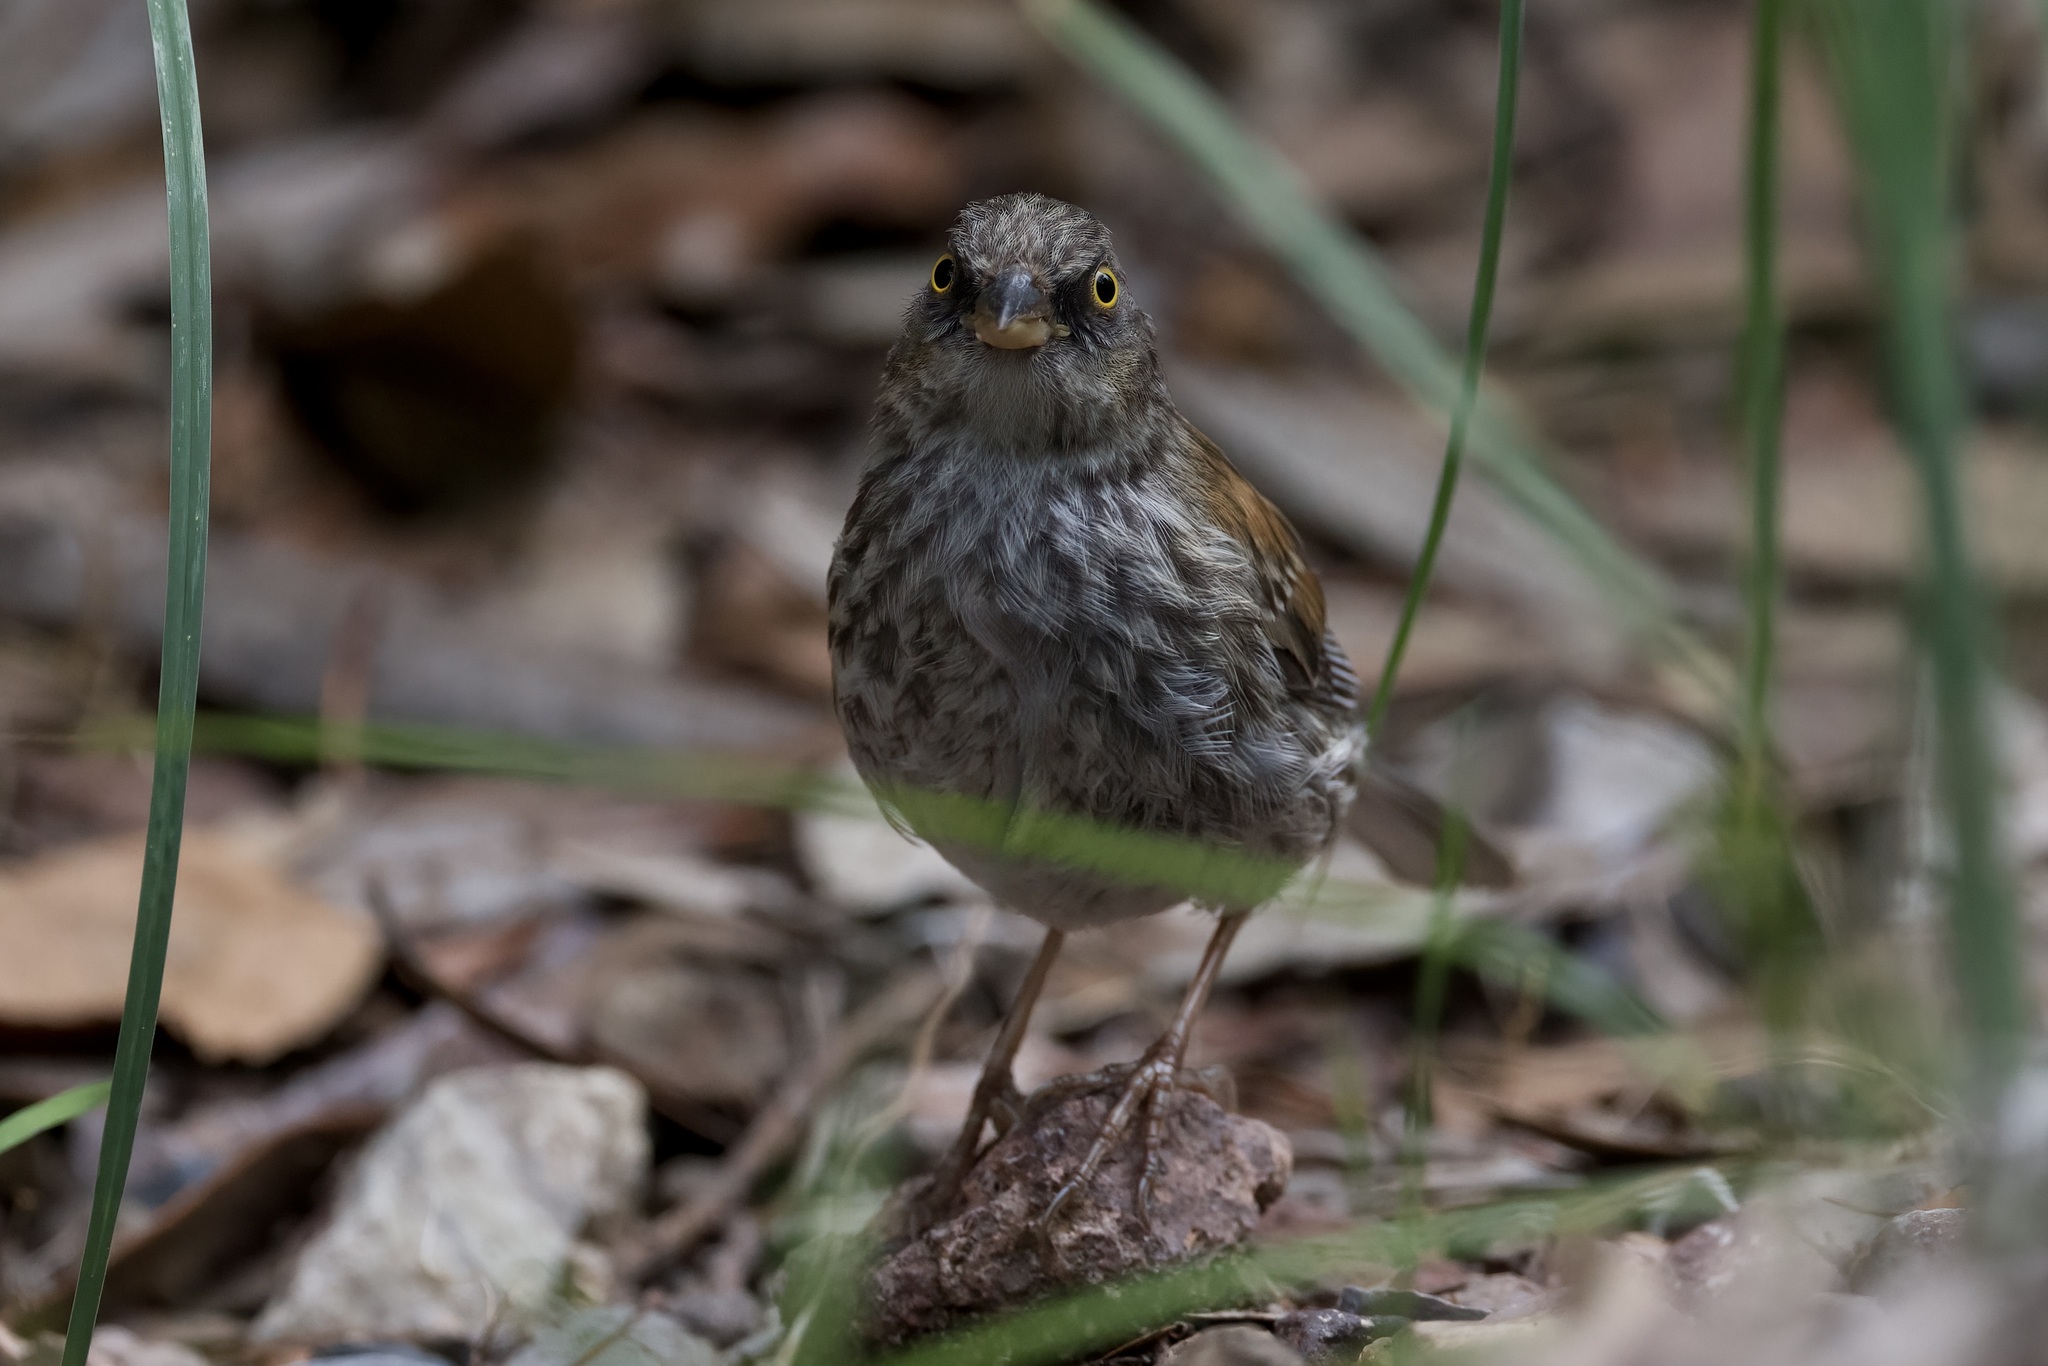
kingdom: Animalia
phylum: Chordata
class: Aves
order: Passeriformes
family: Passerellidae
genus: Junco
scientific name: Junco phaeonotus
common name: Yellow-eyed junco
